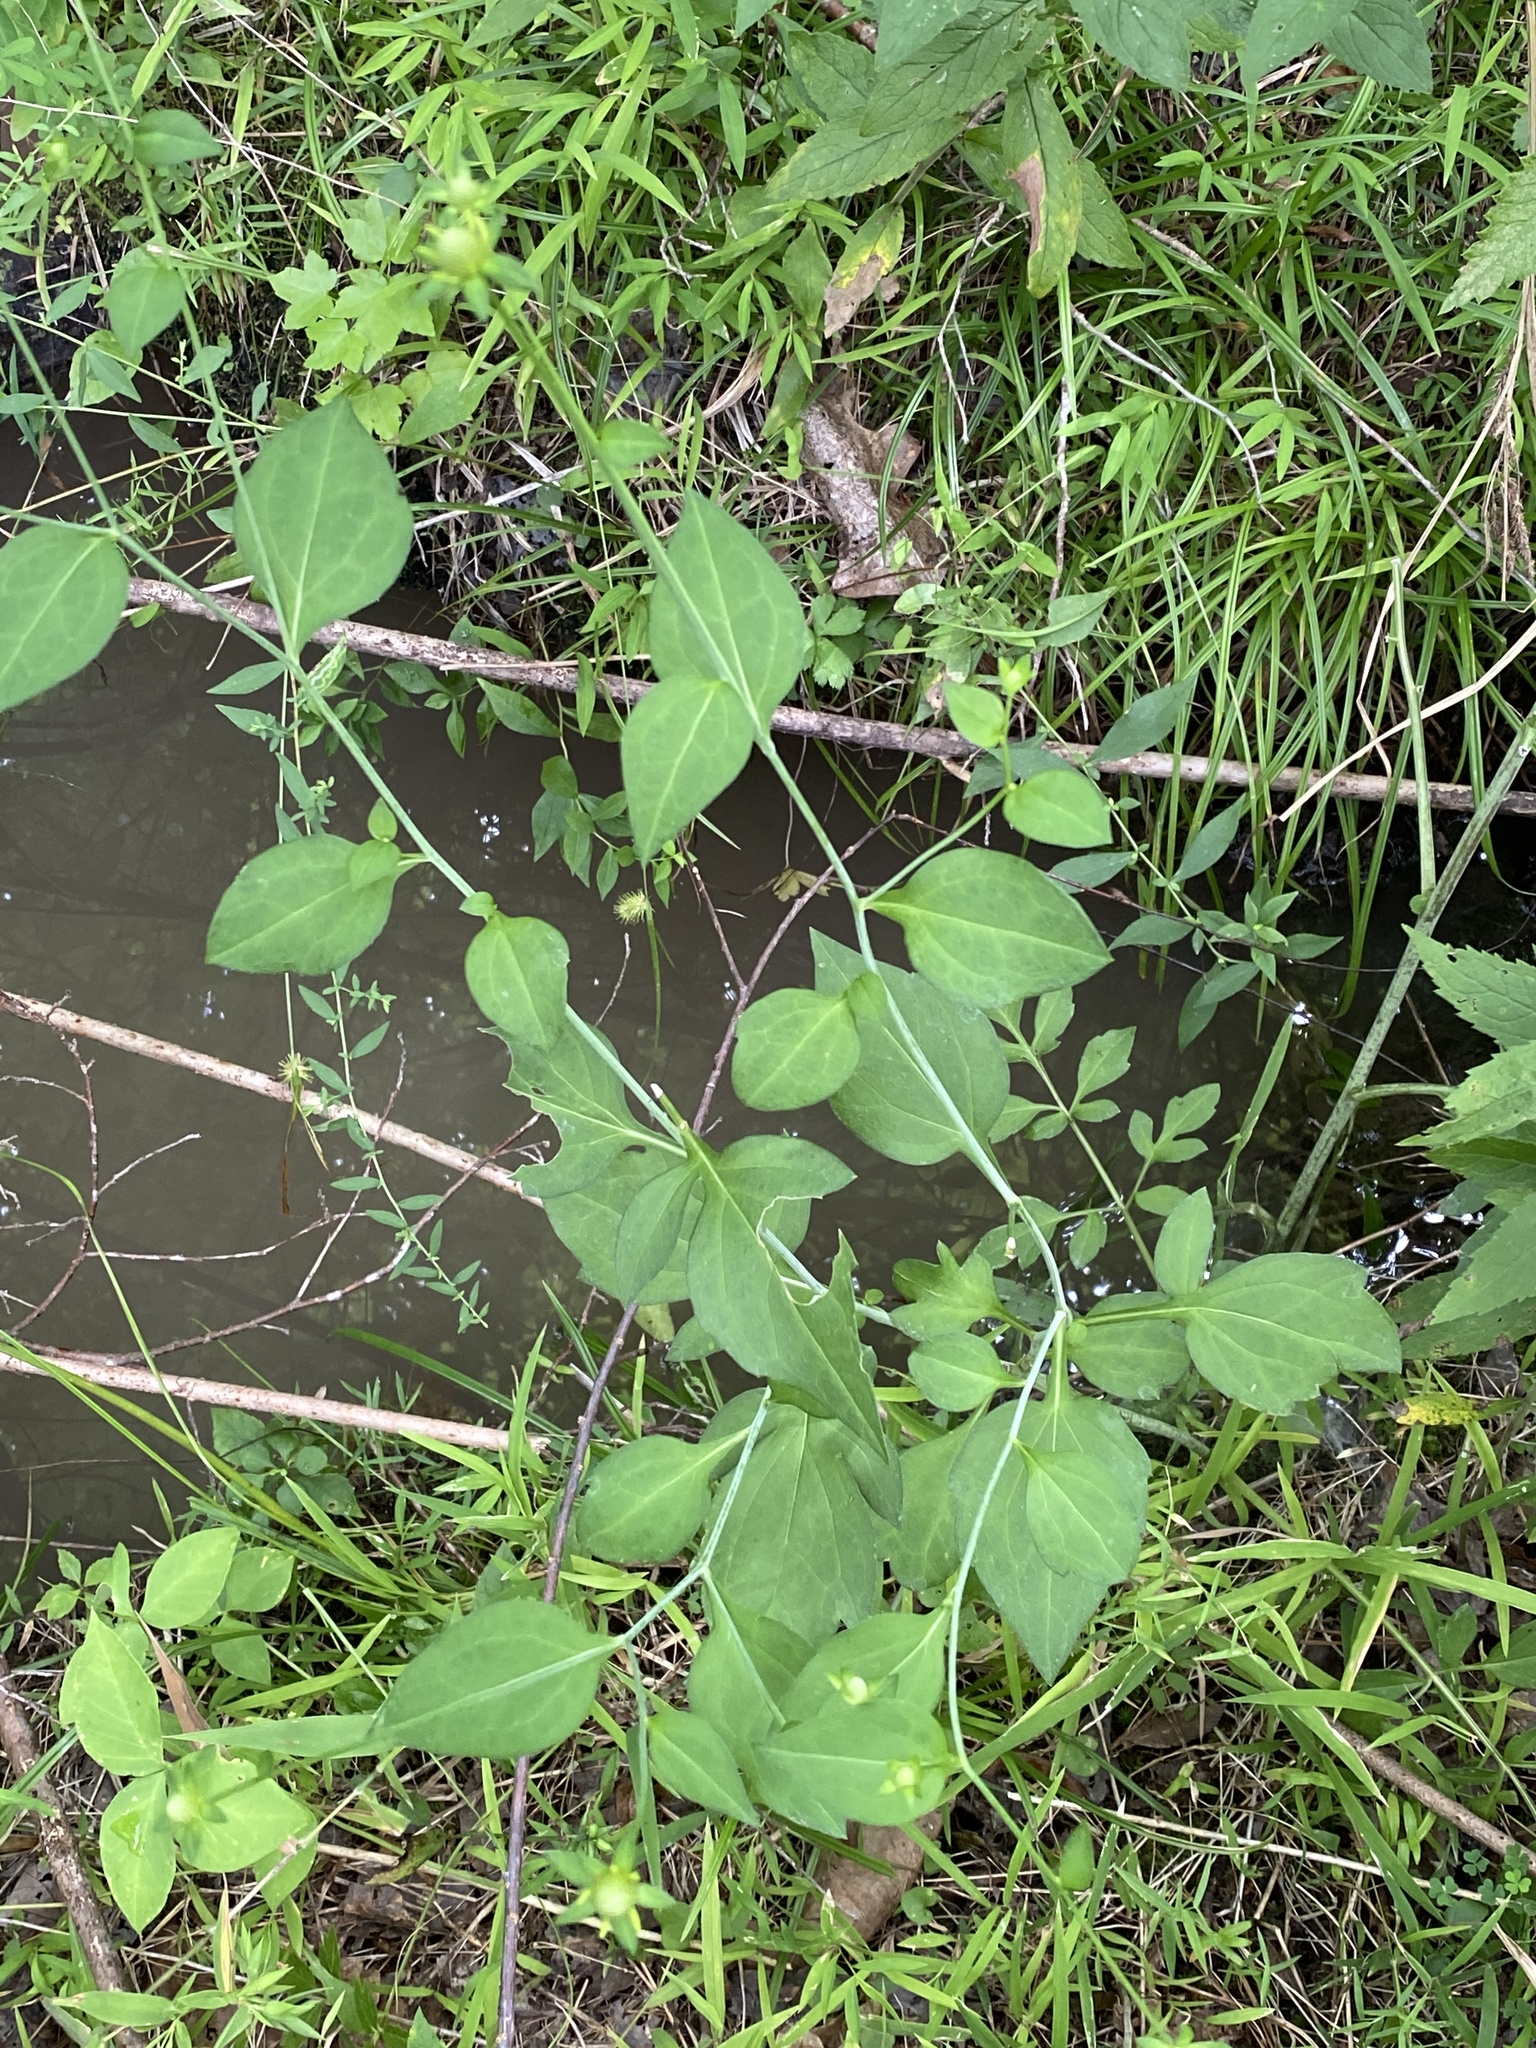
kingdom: Plantae
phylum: Tracheophyta
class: Magnoliopsida
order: Asterales
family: Asteraceae
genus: Rudbeckia
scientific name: Rudbeckia laciniata
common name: Coneflower
